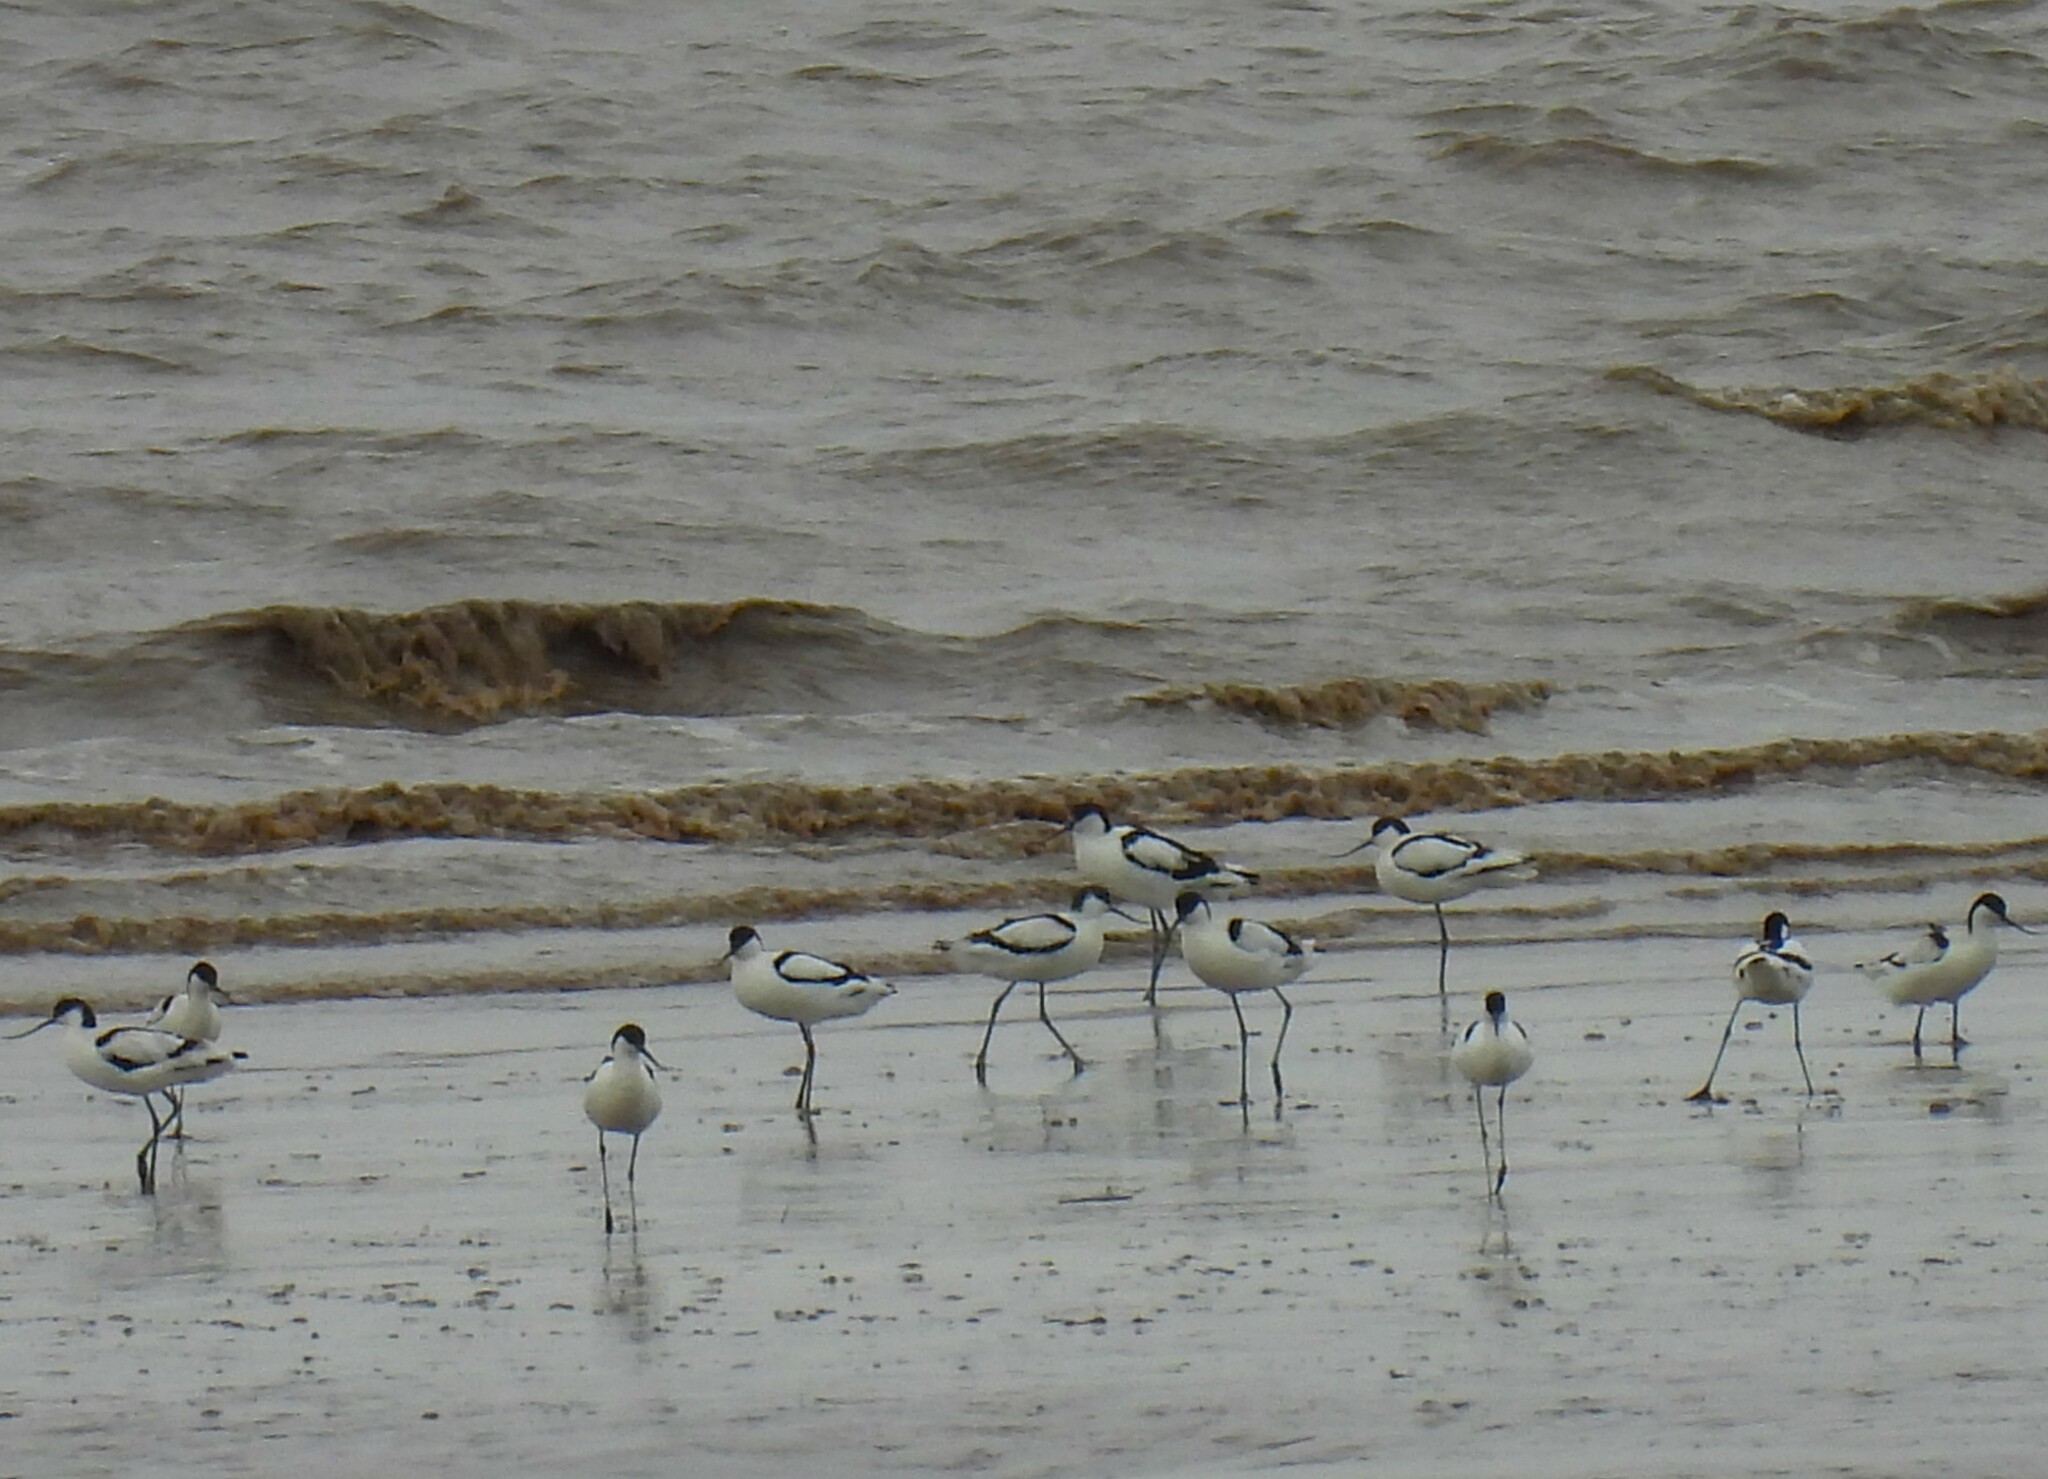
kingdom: Animalia
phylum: Chordata
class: Aves
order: Charadriiformes
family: Recurvirostridae
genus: Recurvirostra
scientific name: Recurvirostra avosetta
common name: Pied avocet
